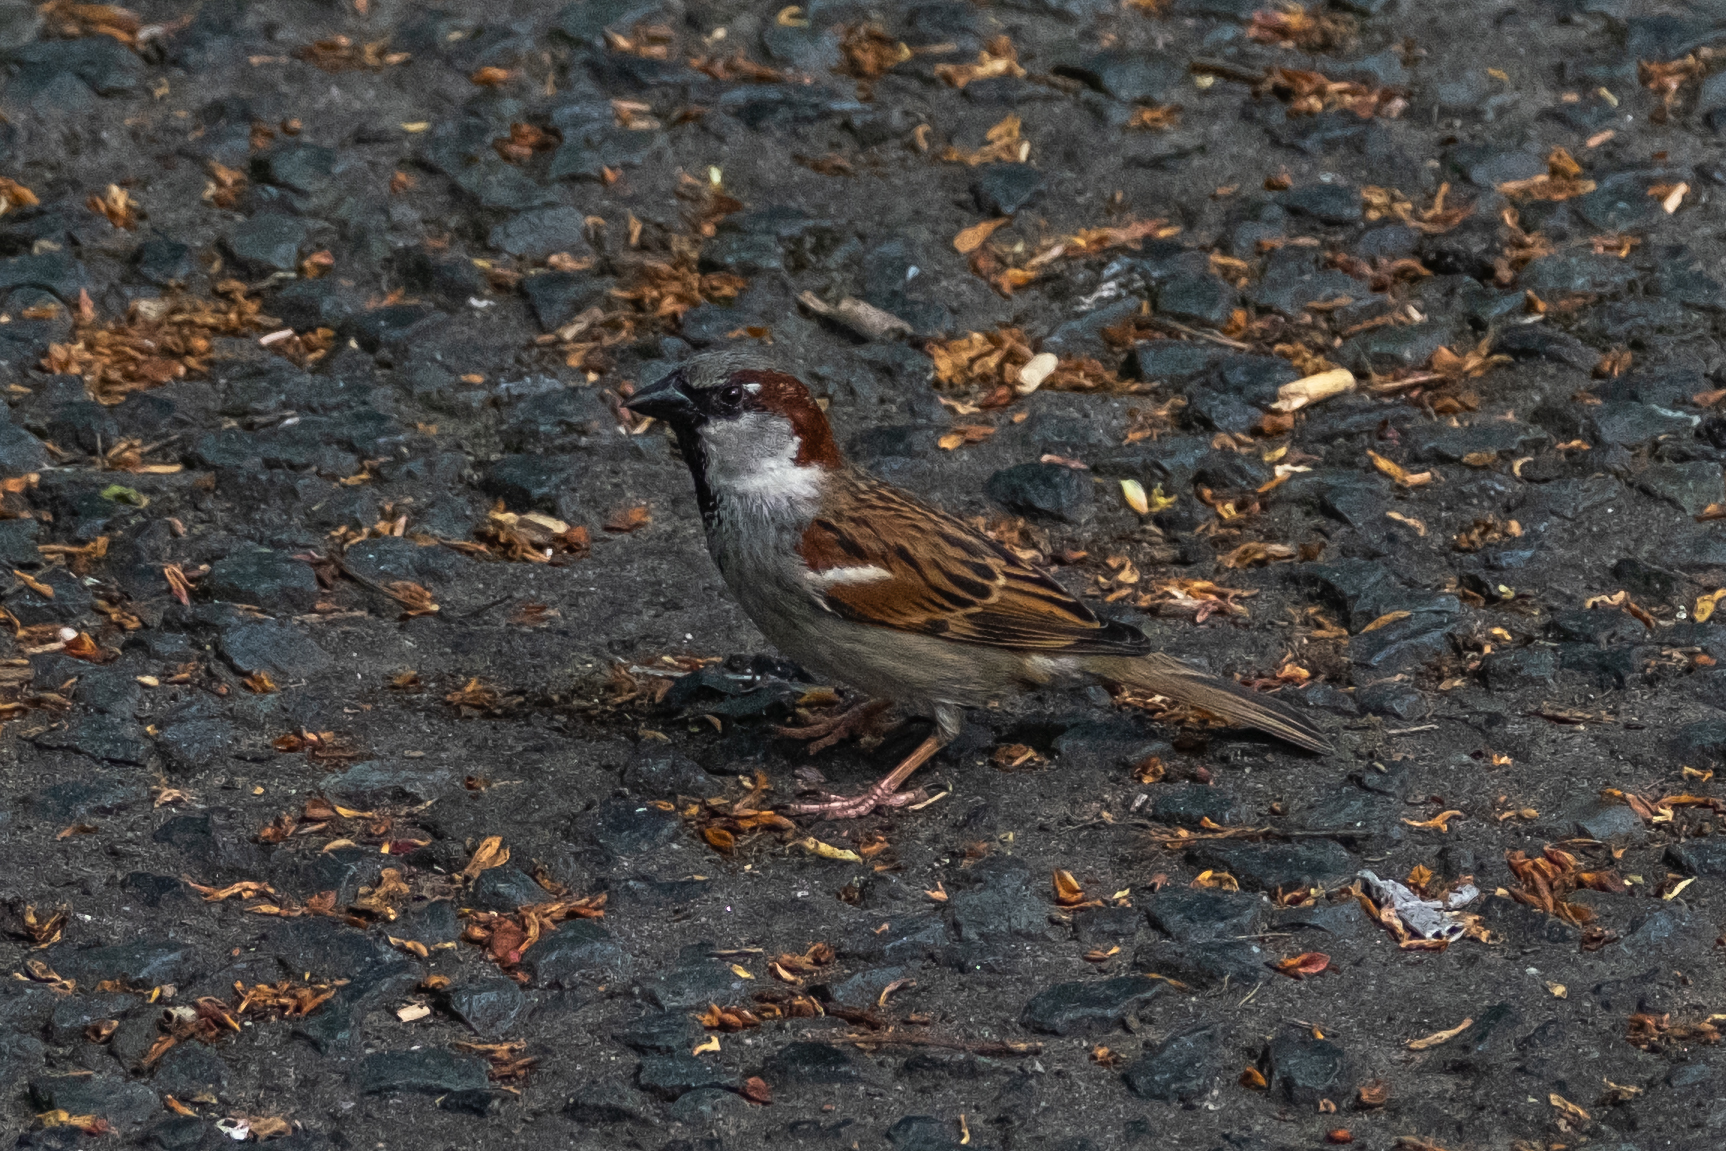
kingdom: Animalia
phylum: Chordata
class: Aves
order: Passeriformes
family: Passeridae
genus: Passer
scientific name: Passer domesticus
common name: House sparrow
